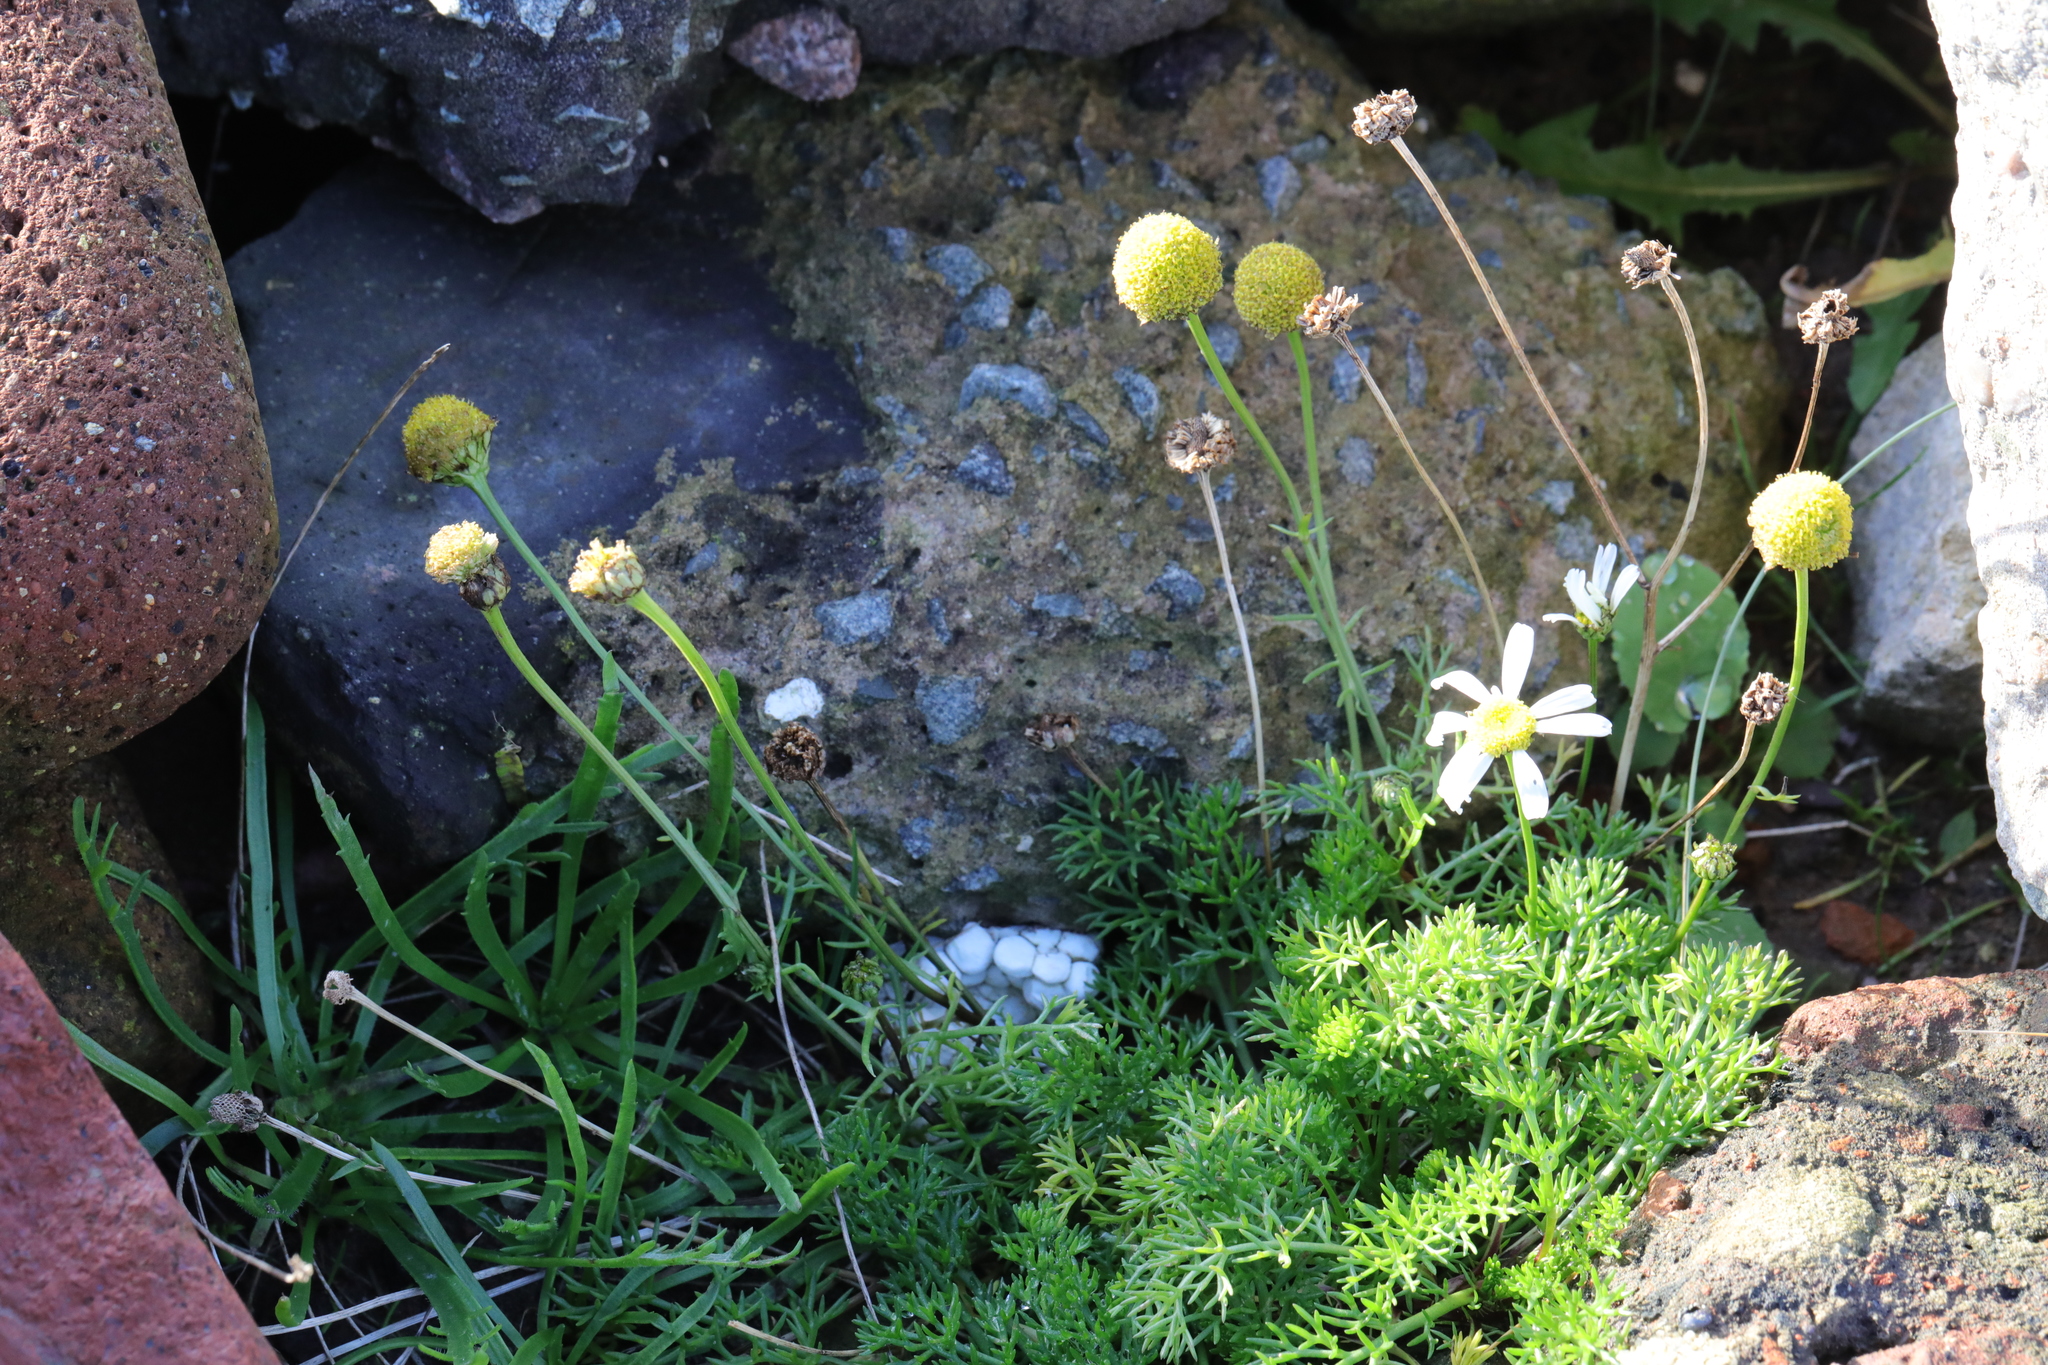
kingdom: Plantae
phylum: Tracheophyta
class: Magnoliopsida
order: Asterales
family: Asteraceae
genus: Tripleurospermum
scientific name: Tripleurospermum maritimum
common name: Sea mayweed
